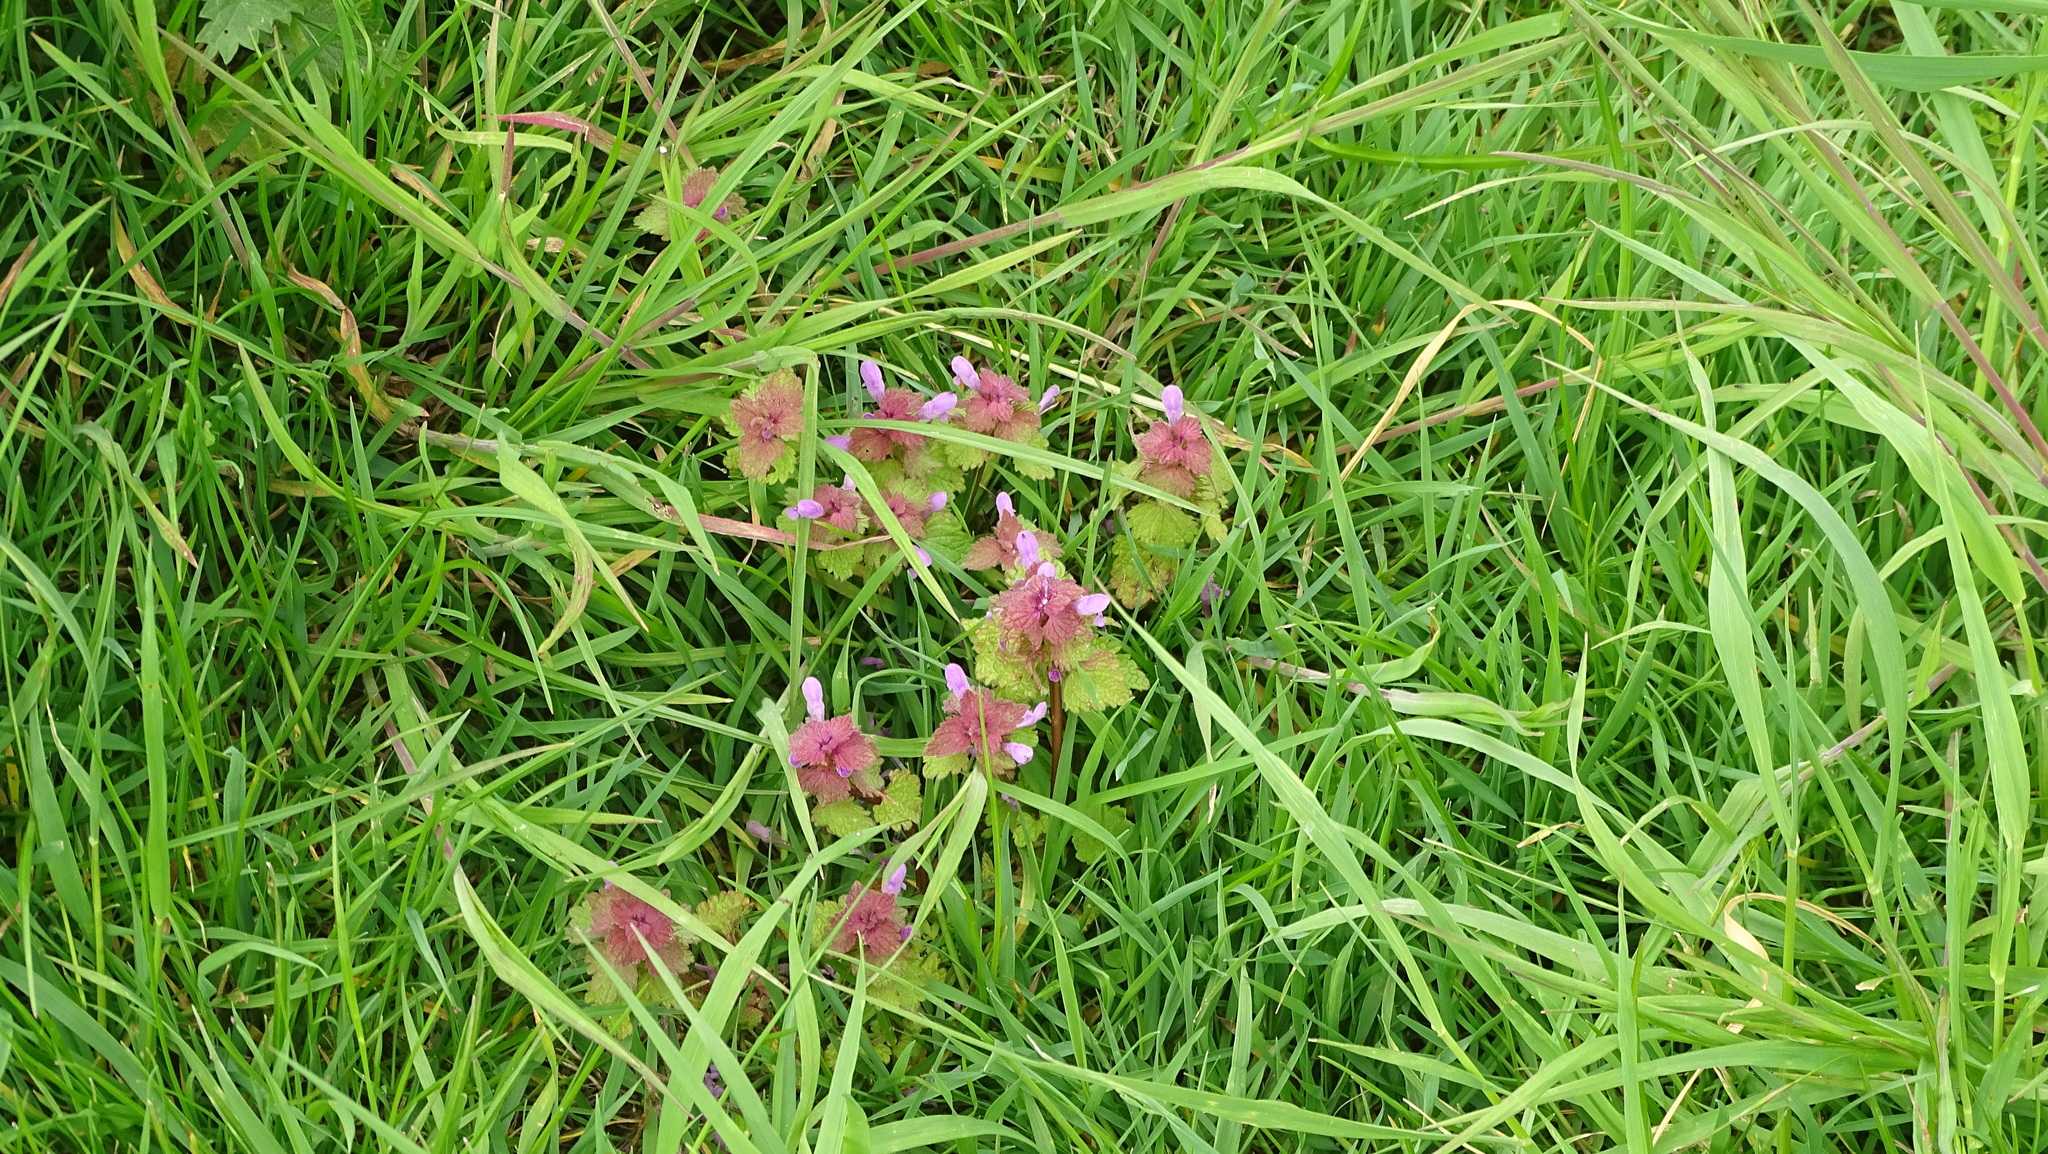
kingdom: Plantae
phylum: Tracheophyta
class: Magnoliopsida
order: Lamiales
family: Lamiaceae
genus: Lamium
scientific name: Lamium purpureum
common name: Red dead-nettle
